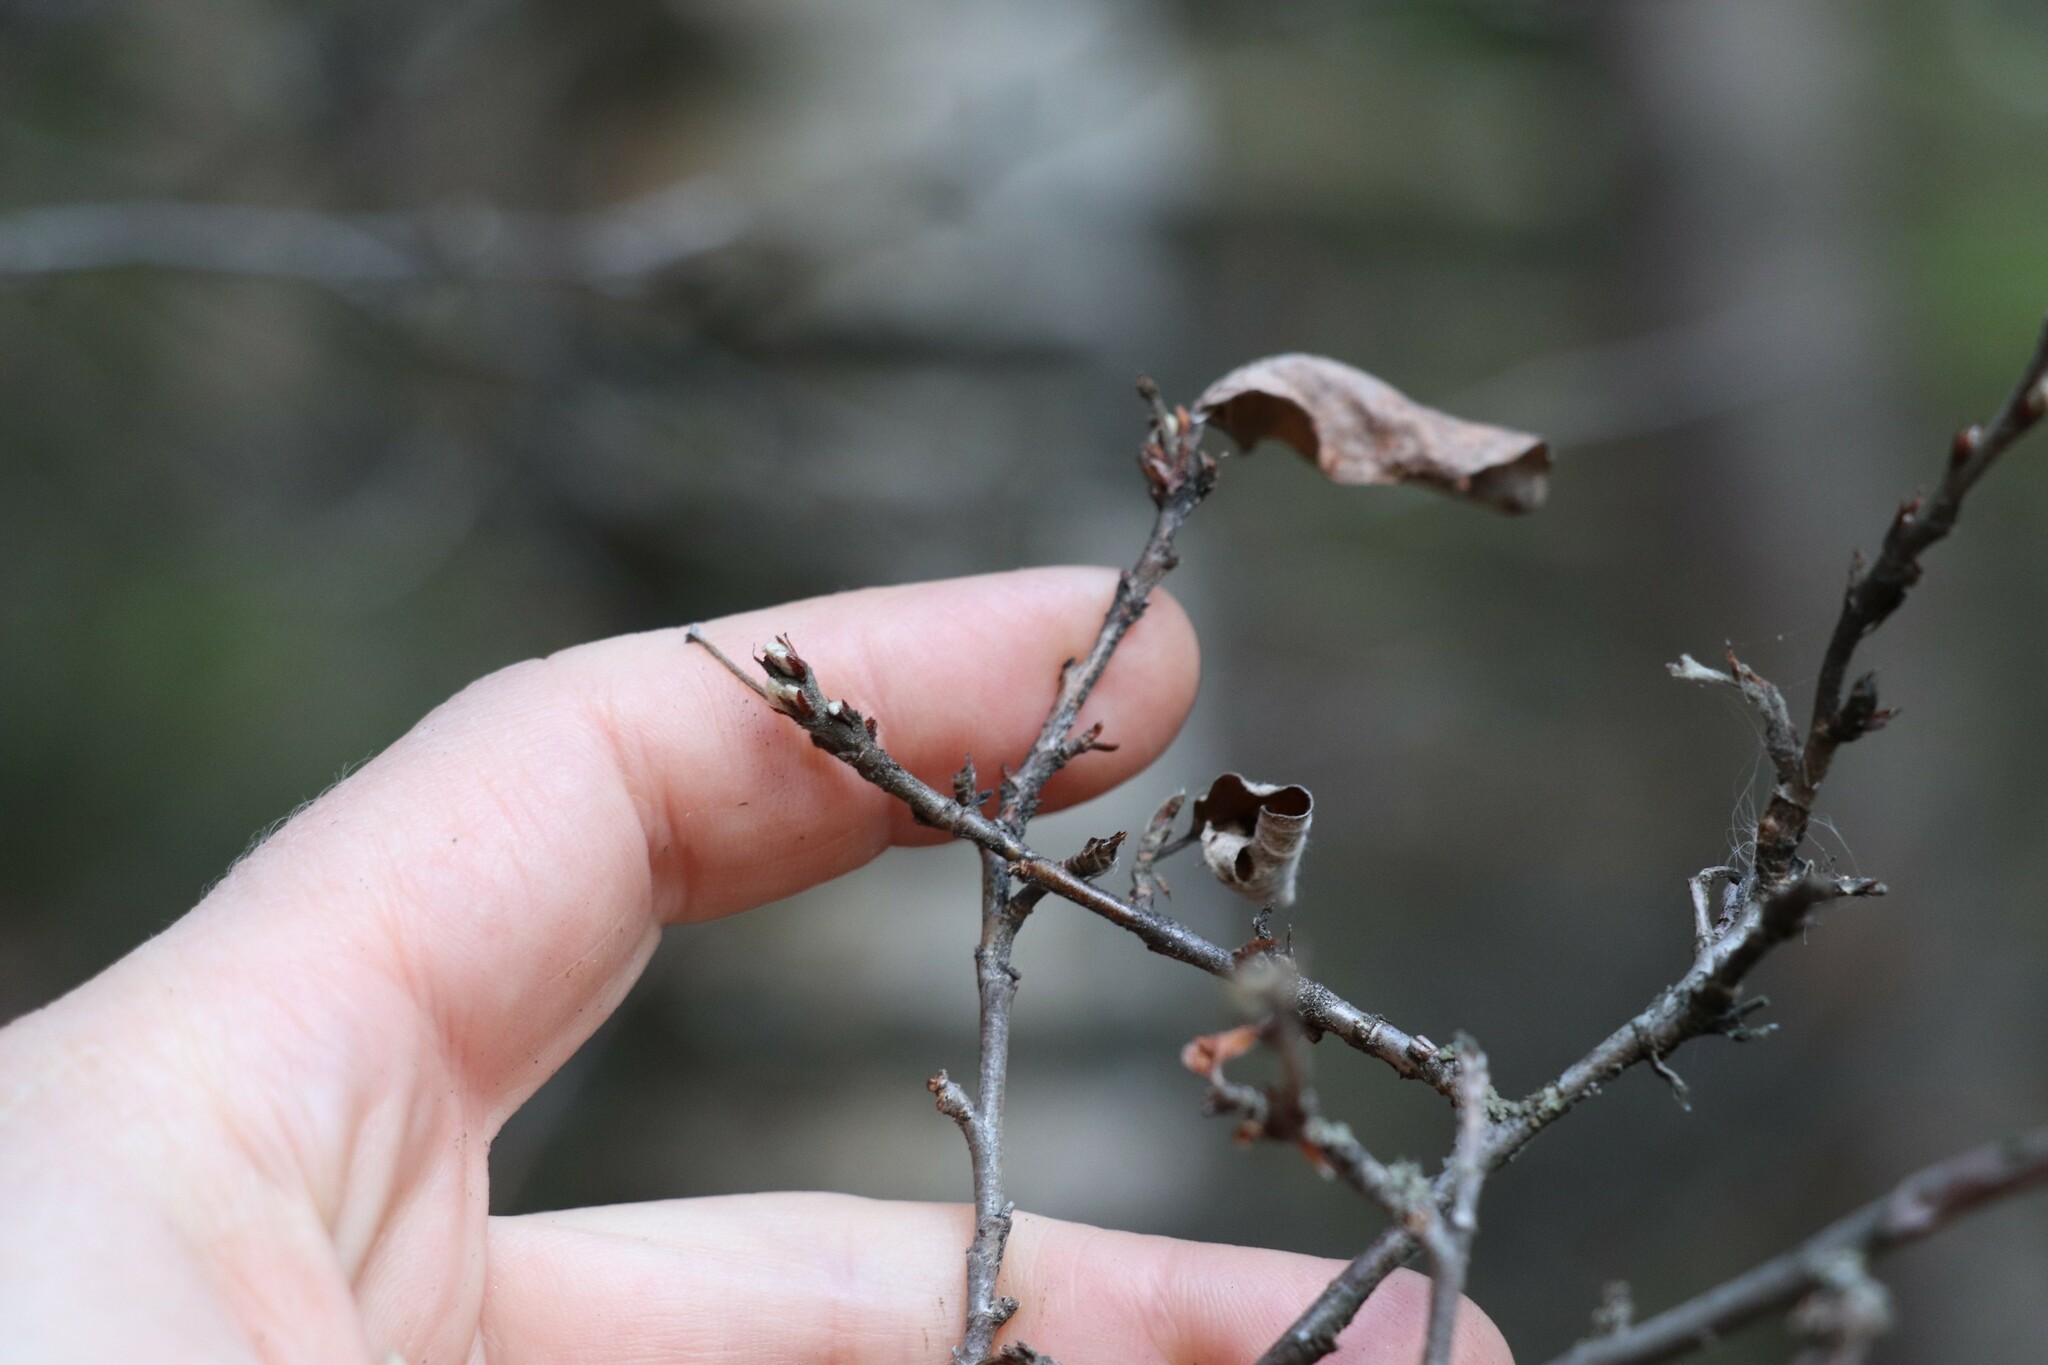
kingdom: Plantae
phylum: Tracheophyta
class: Magnoliopsida
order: Rosales
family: Rosaceae
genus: Cotoneaster
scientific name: Cotoneaster melanocarpus
